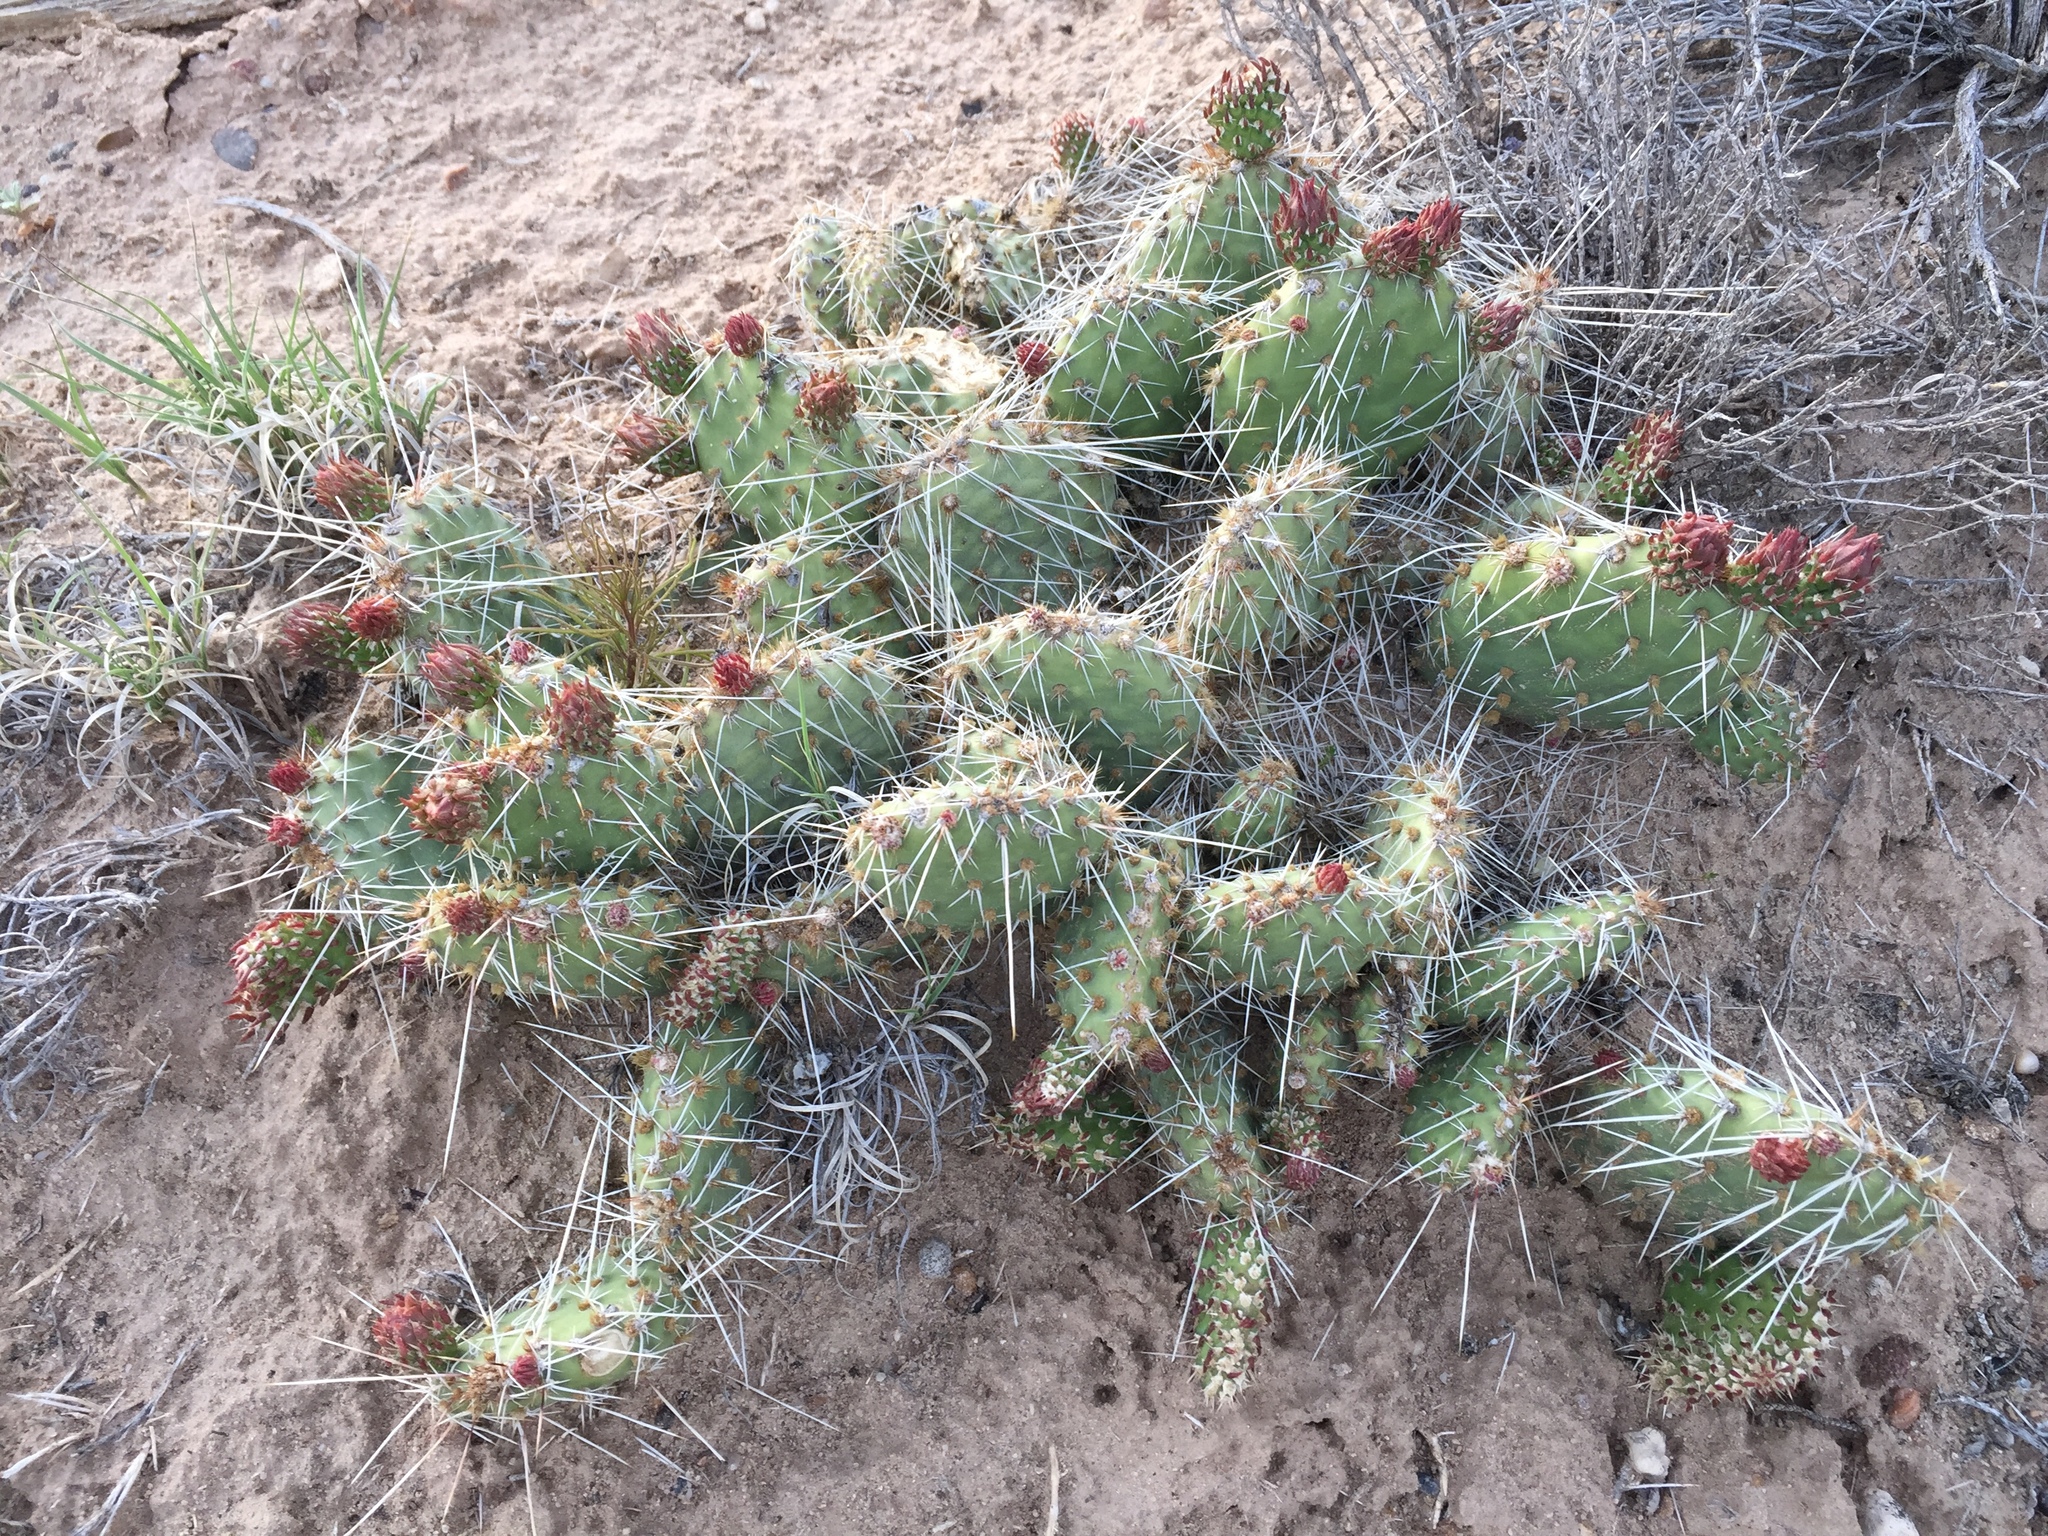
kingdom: Plantae
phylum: Tracheophyta
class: Magnoliopsida
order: Caryophyllales
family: Cactaceae
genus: Opuntia
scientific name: Opuntia polyacantha
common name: Plains prickly-pear
